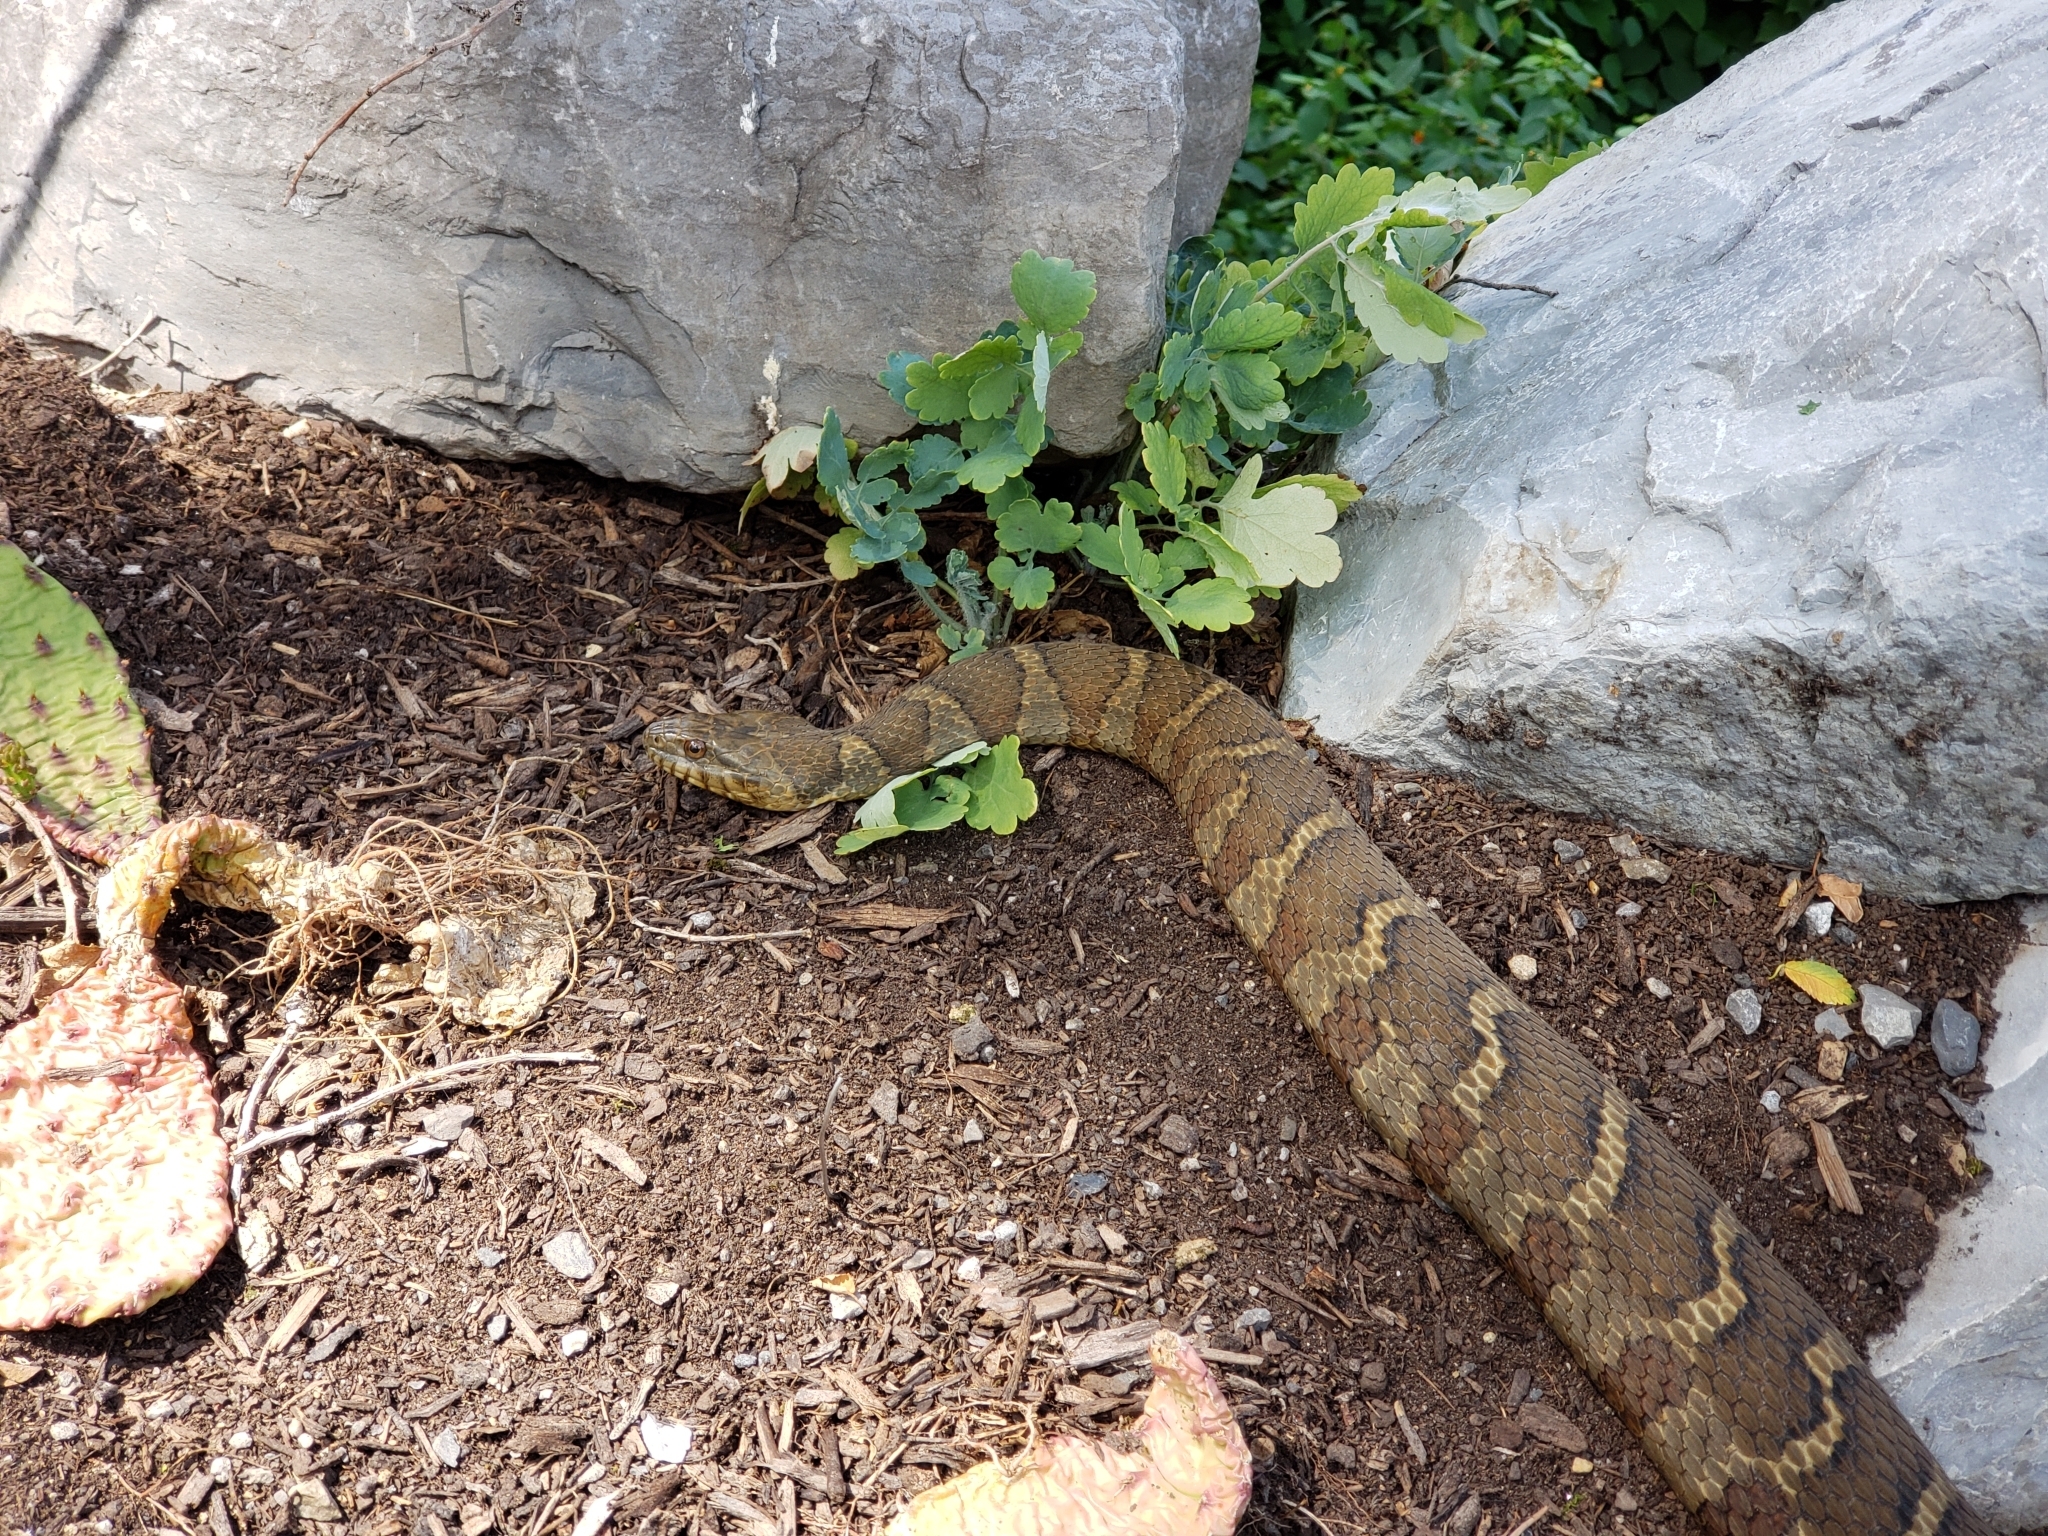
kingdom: Animalia
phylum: Chordata
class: Squamata
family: Colubridae
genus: Nerodia
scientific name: Nerodia sipedon
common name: Northern water snake
